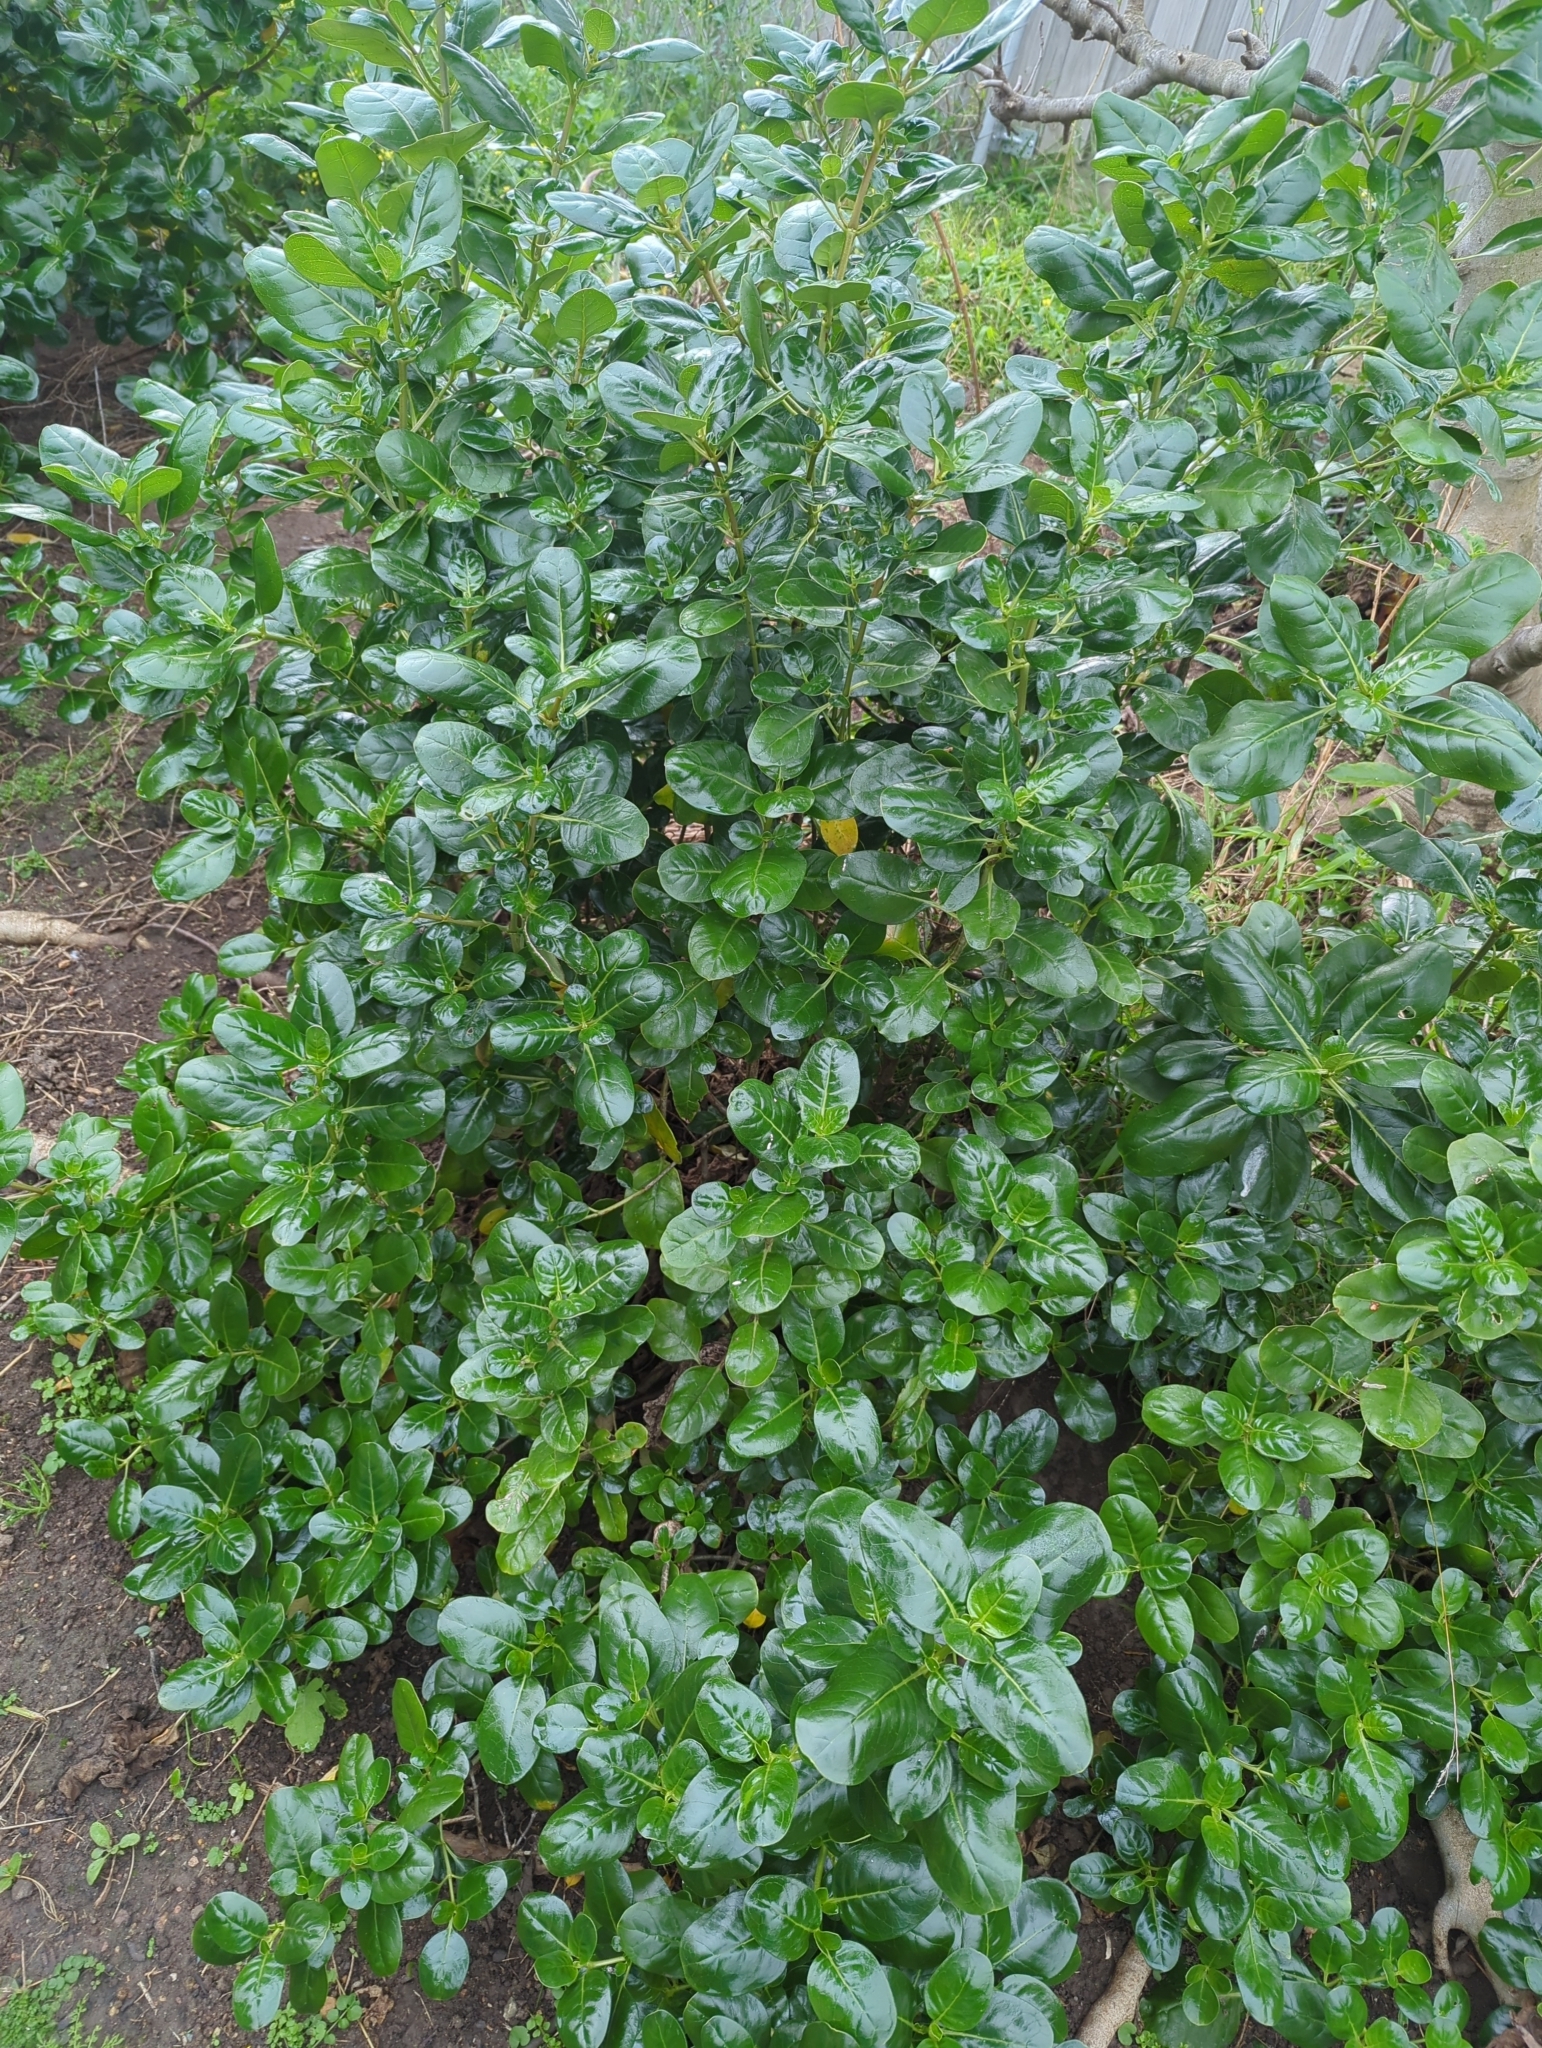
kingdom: Plantae
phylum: Tracheophyta
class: Magnoliopsida
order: Gentianales
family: Rubiaceae
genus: Coprosma
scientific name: Coprosma repens
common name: Tree bedstraw
